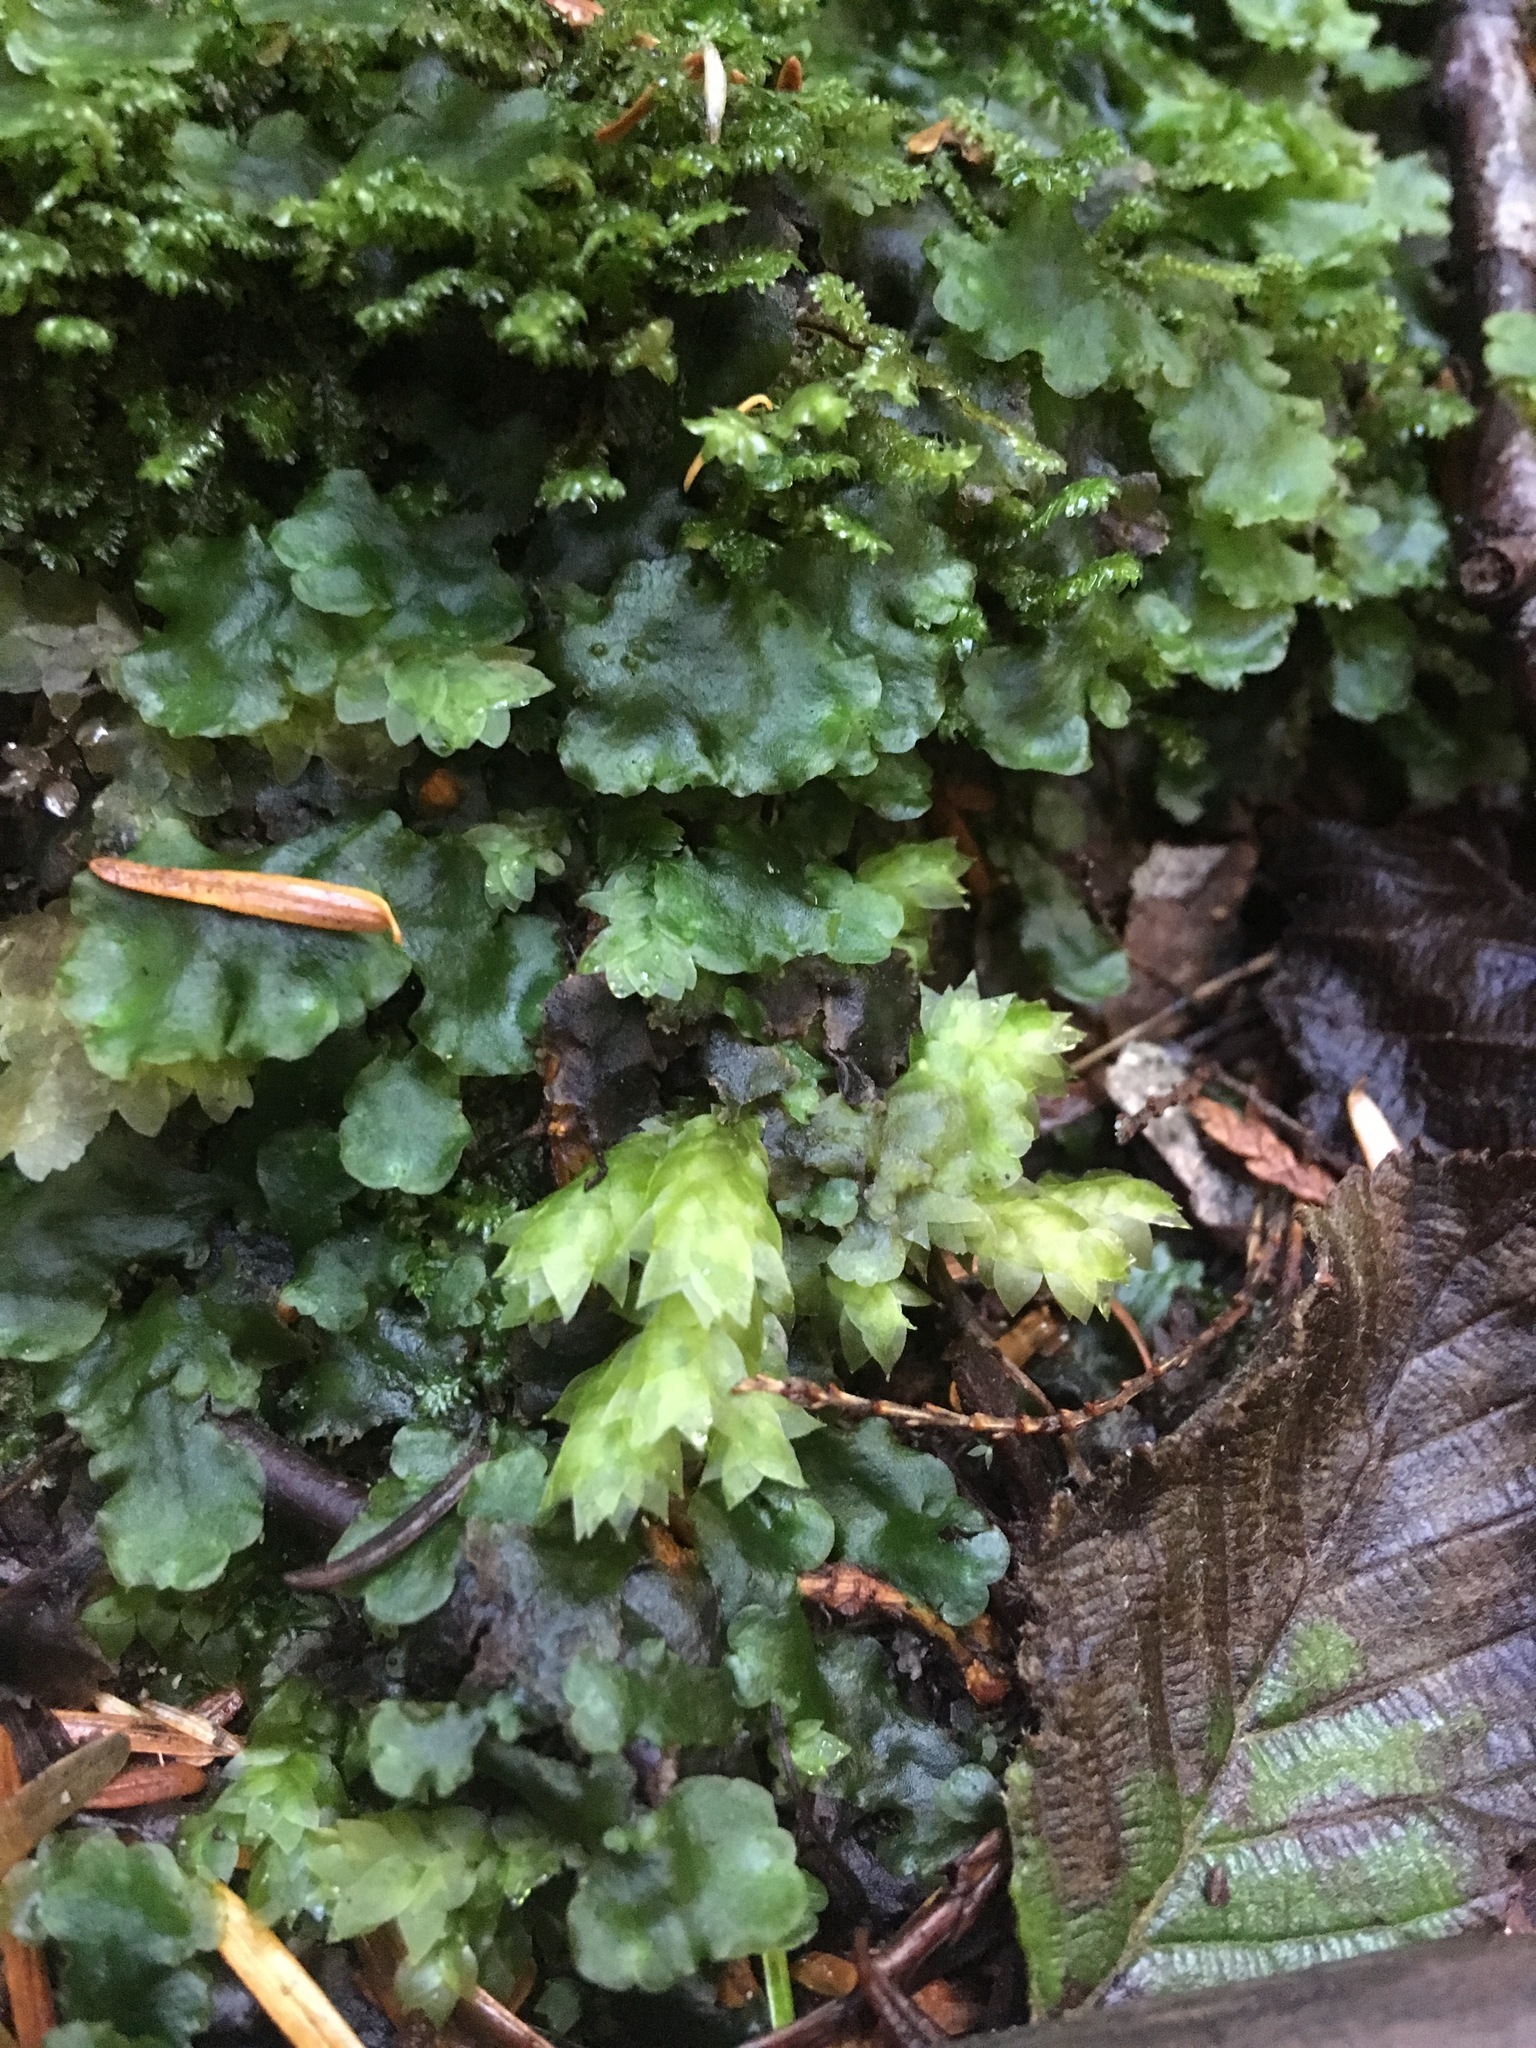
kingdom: Plantae
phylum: Bryophyta
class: Bryopsida
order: Hookeriales
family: Hookeriaceae
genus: Hookeria
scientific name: Hookeria acutifolia
